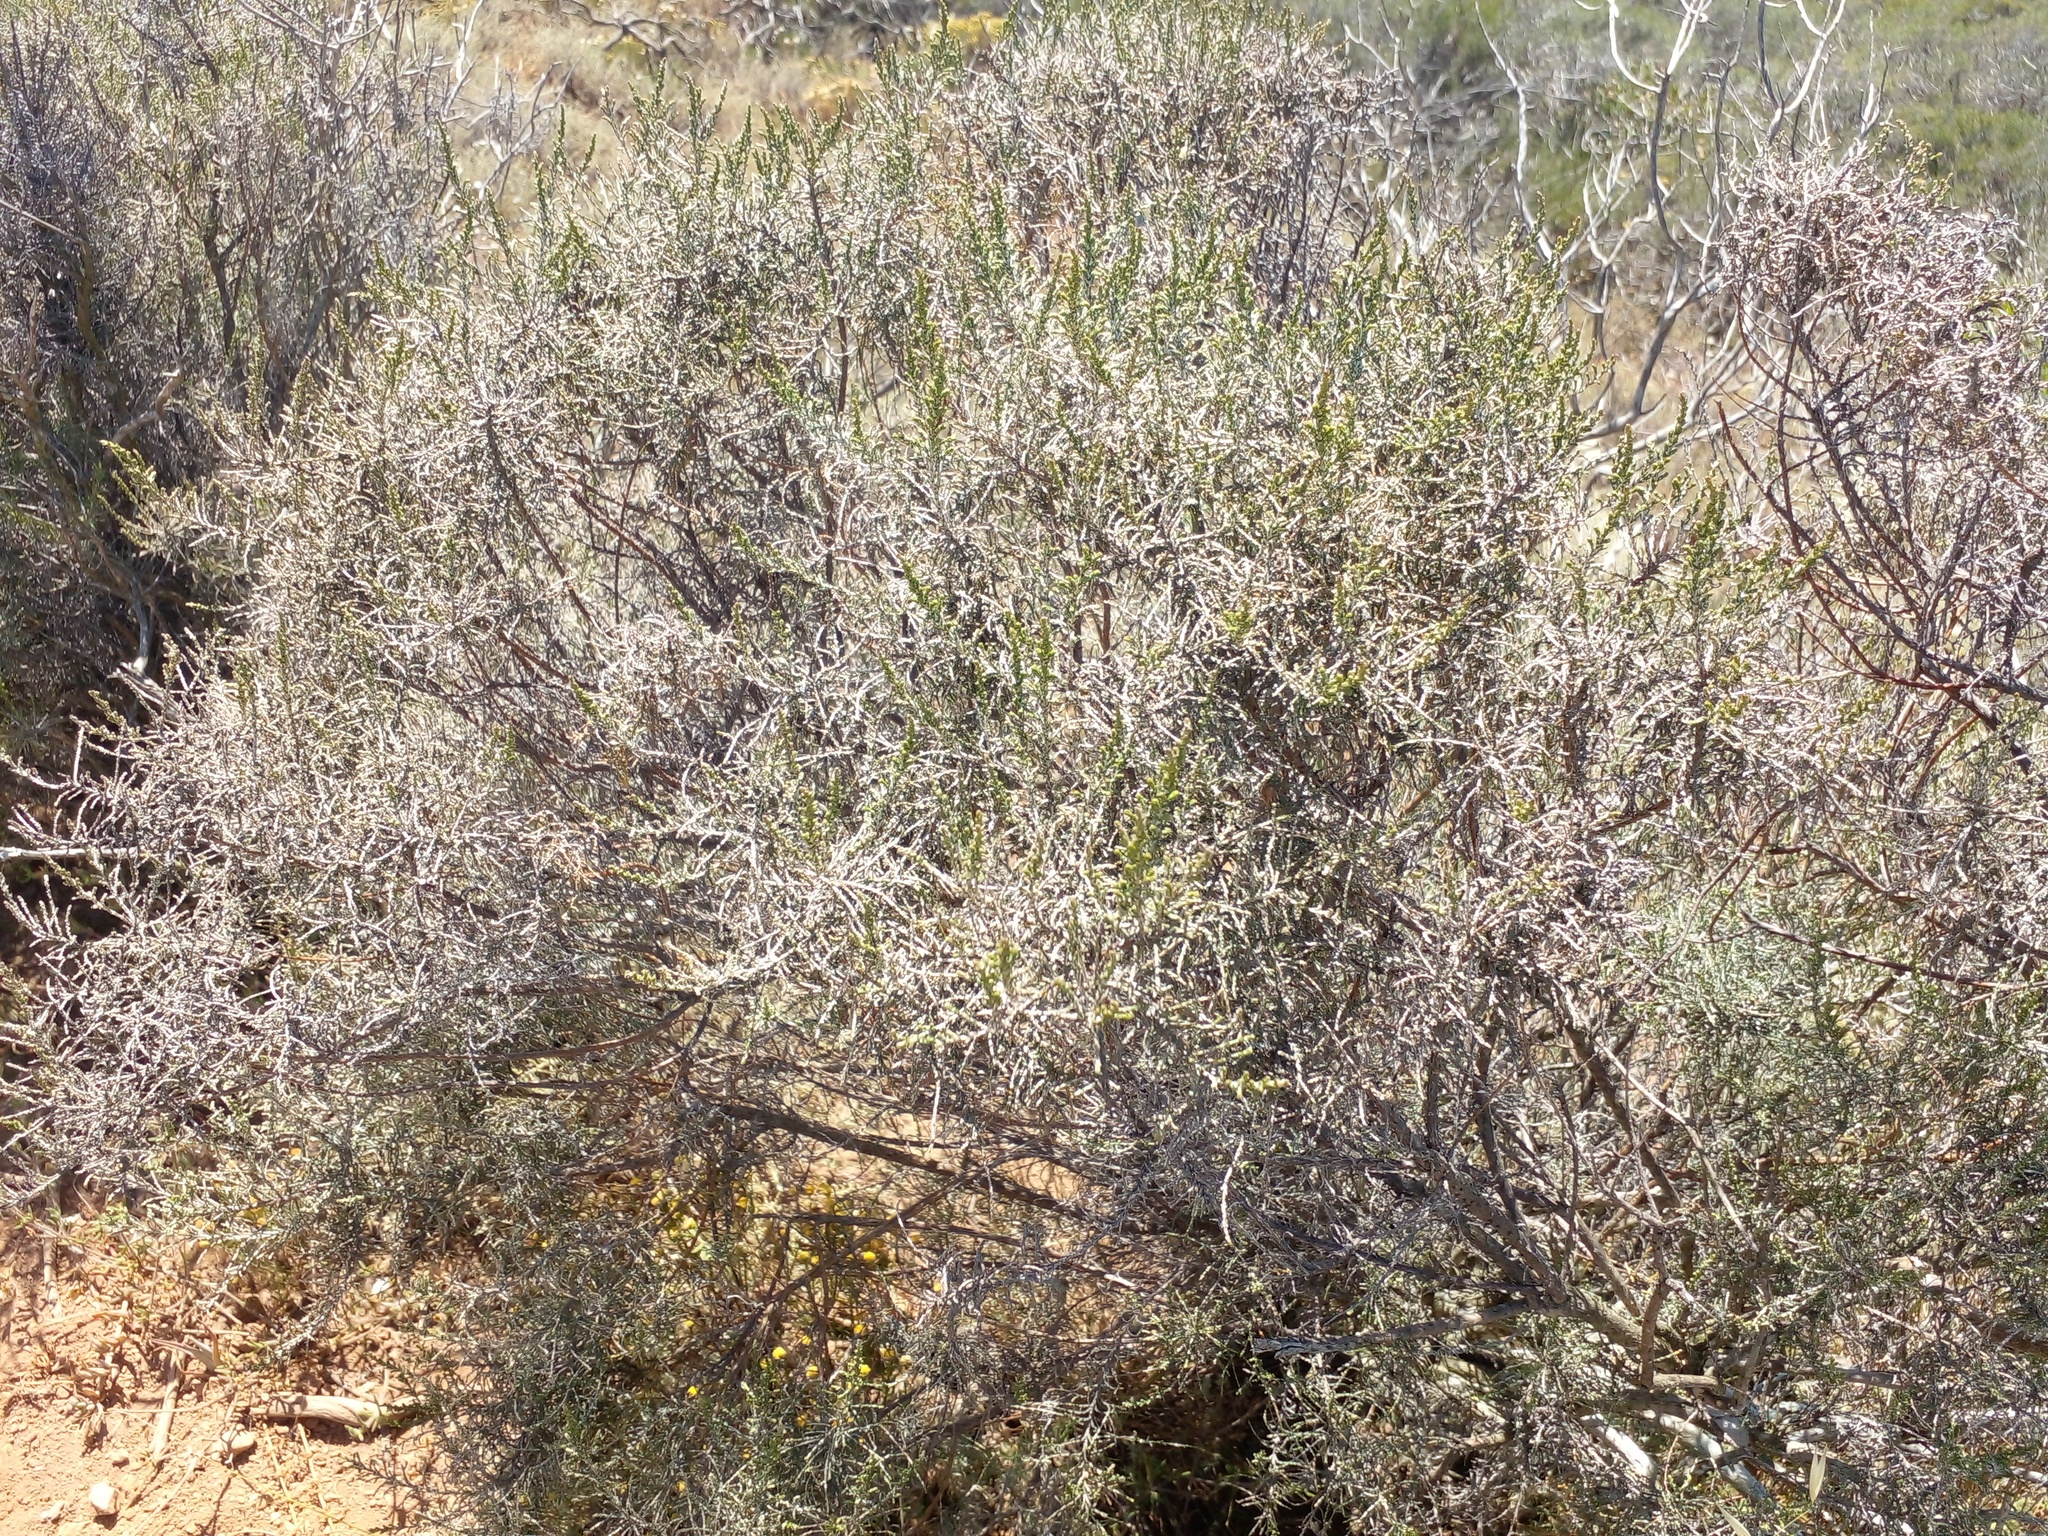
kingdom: Plantae
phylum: Tracheophyta
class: Magnoliopsida
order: Asterales
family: Asteraceae
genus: Dicerothamnus
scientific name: Dicerothamnus rhinocerotis
